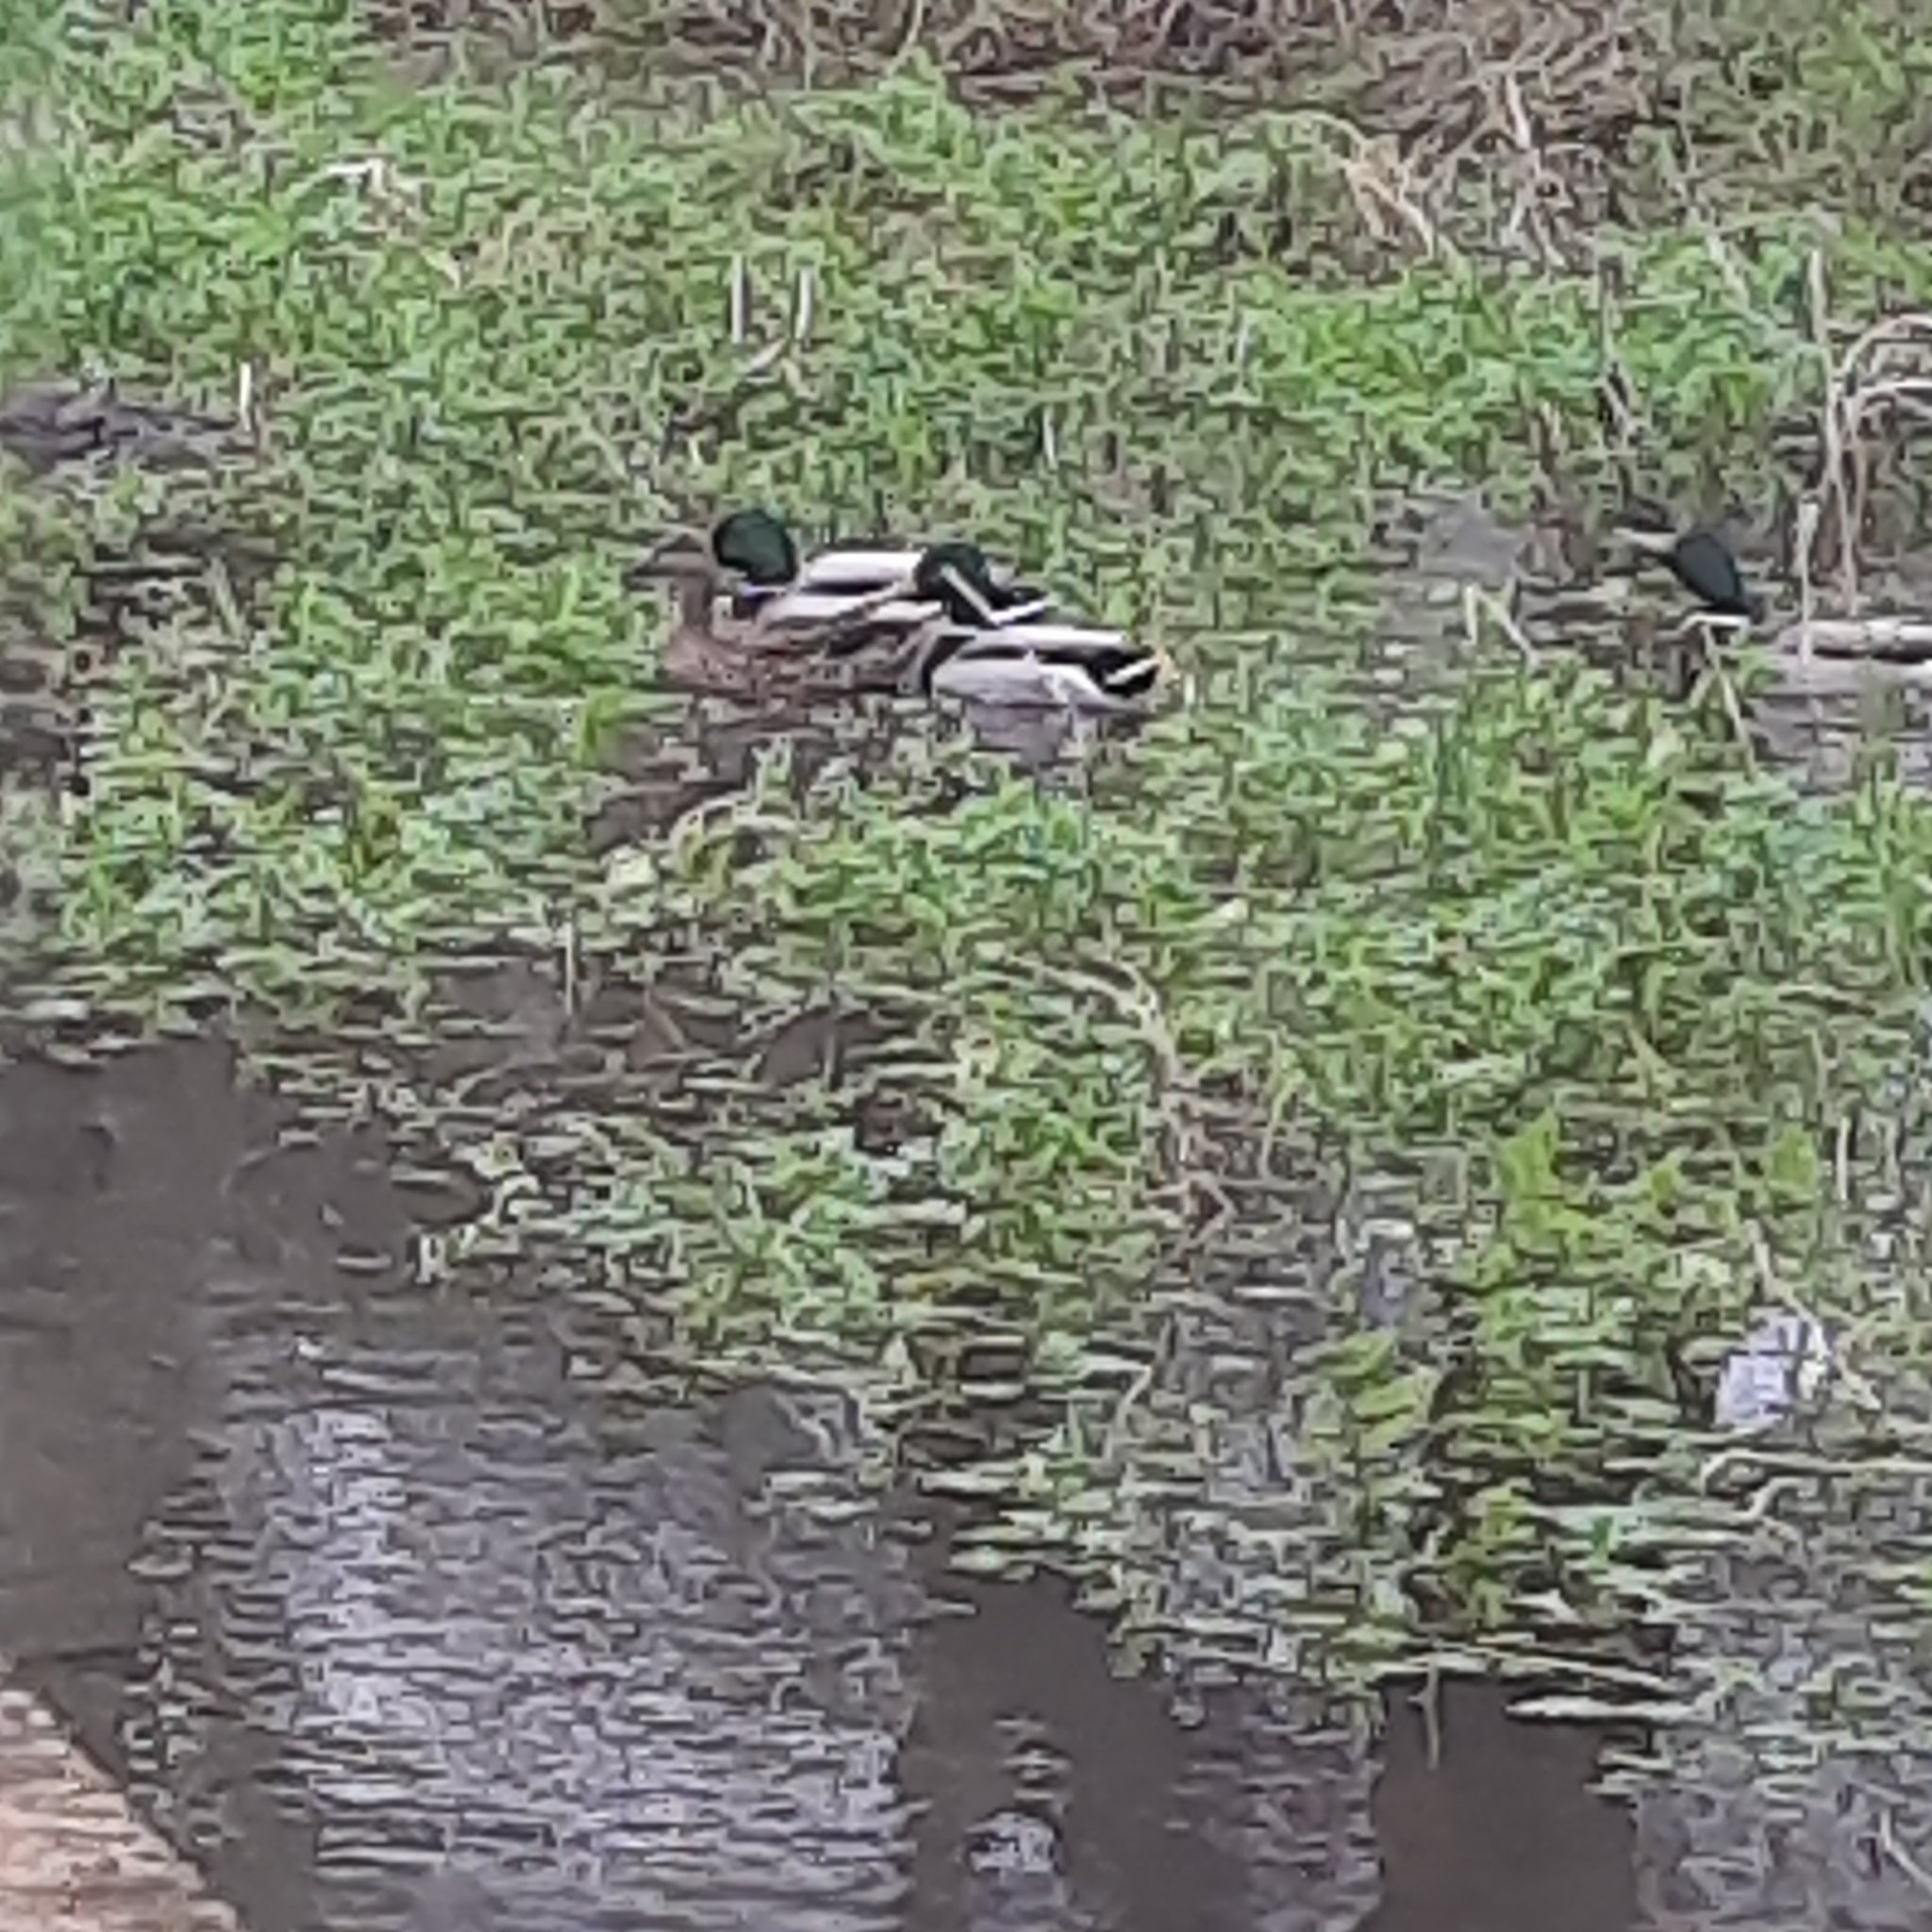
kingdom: Animalia
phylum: Chordata
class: Aves
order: Anseriformes
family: Anatidae
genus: Anas
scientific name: Anas platyrhynchos
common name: Mallard
